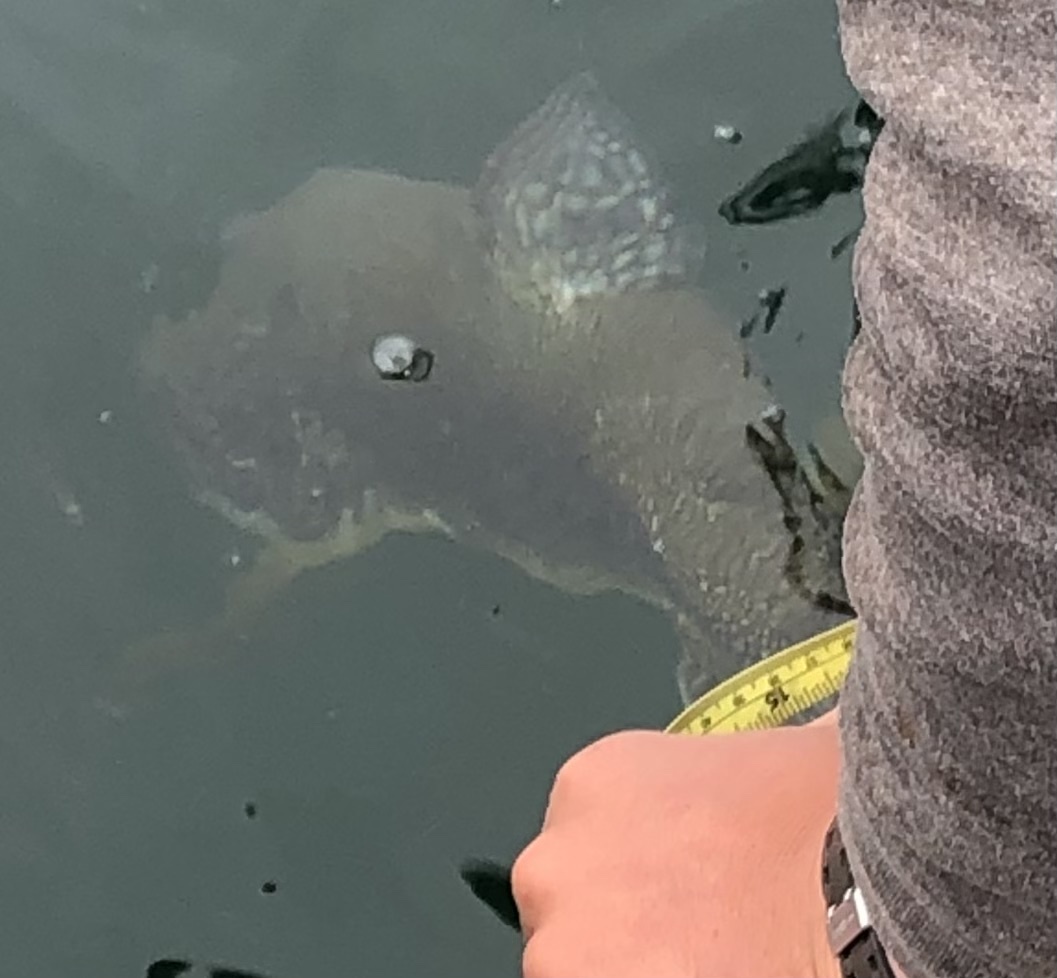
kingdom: Animalia
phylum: Chordata
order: Salmoniformes
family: Salmonidae
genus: Salvelinus
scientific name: Salvelinus namaycush
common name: American lake charr
